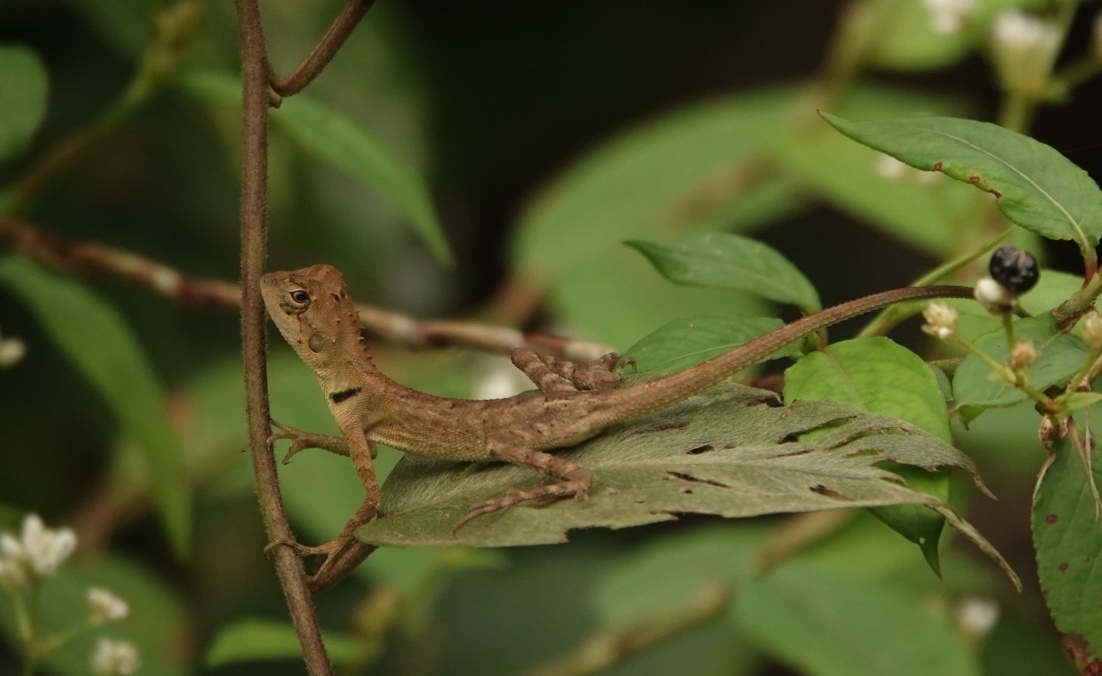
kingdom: Animalia
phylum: Chordata
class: Squamata
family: Agamidae
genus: Monilesaurus
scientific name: Monilesaurus rouxii
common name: Roux's forest lizard
